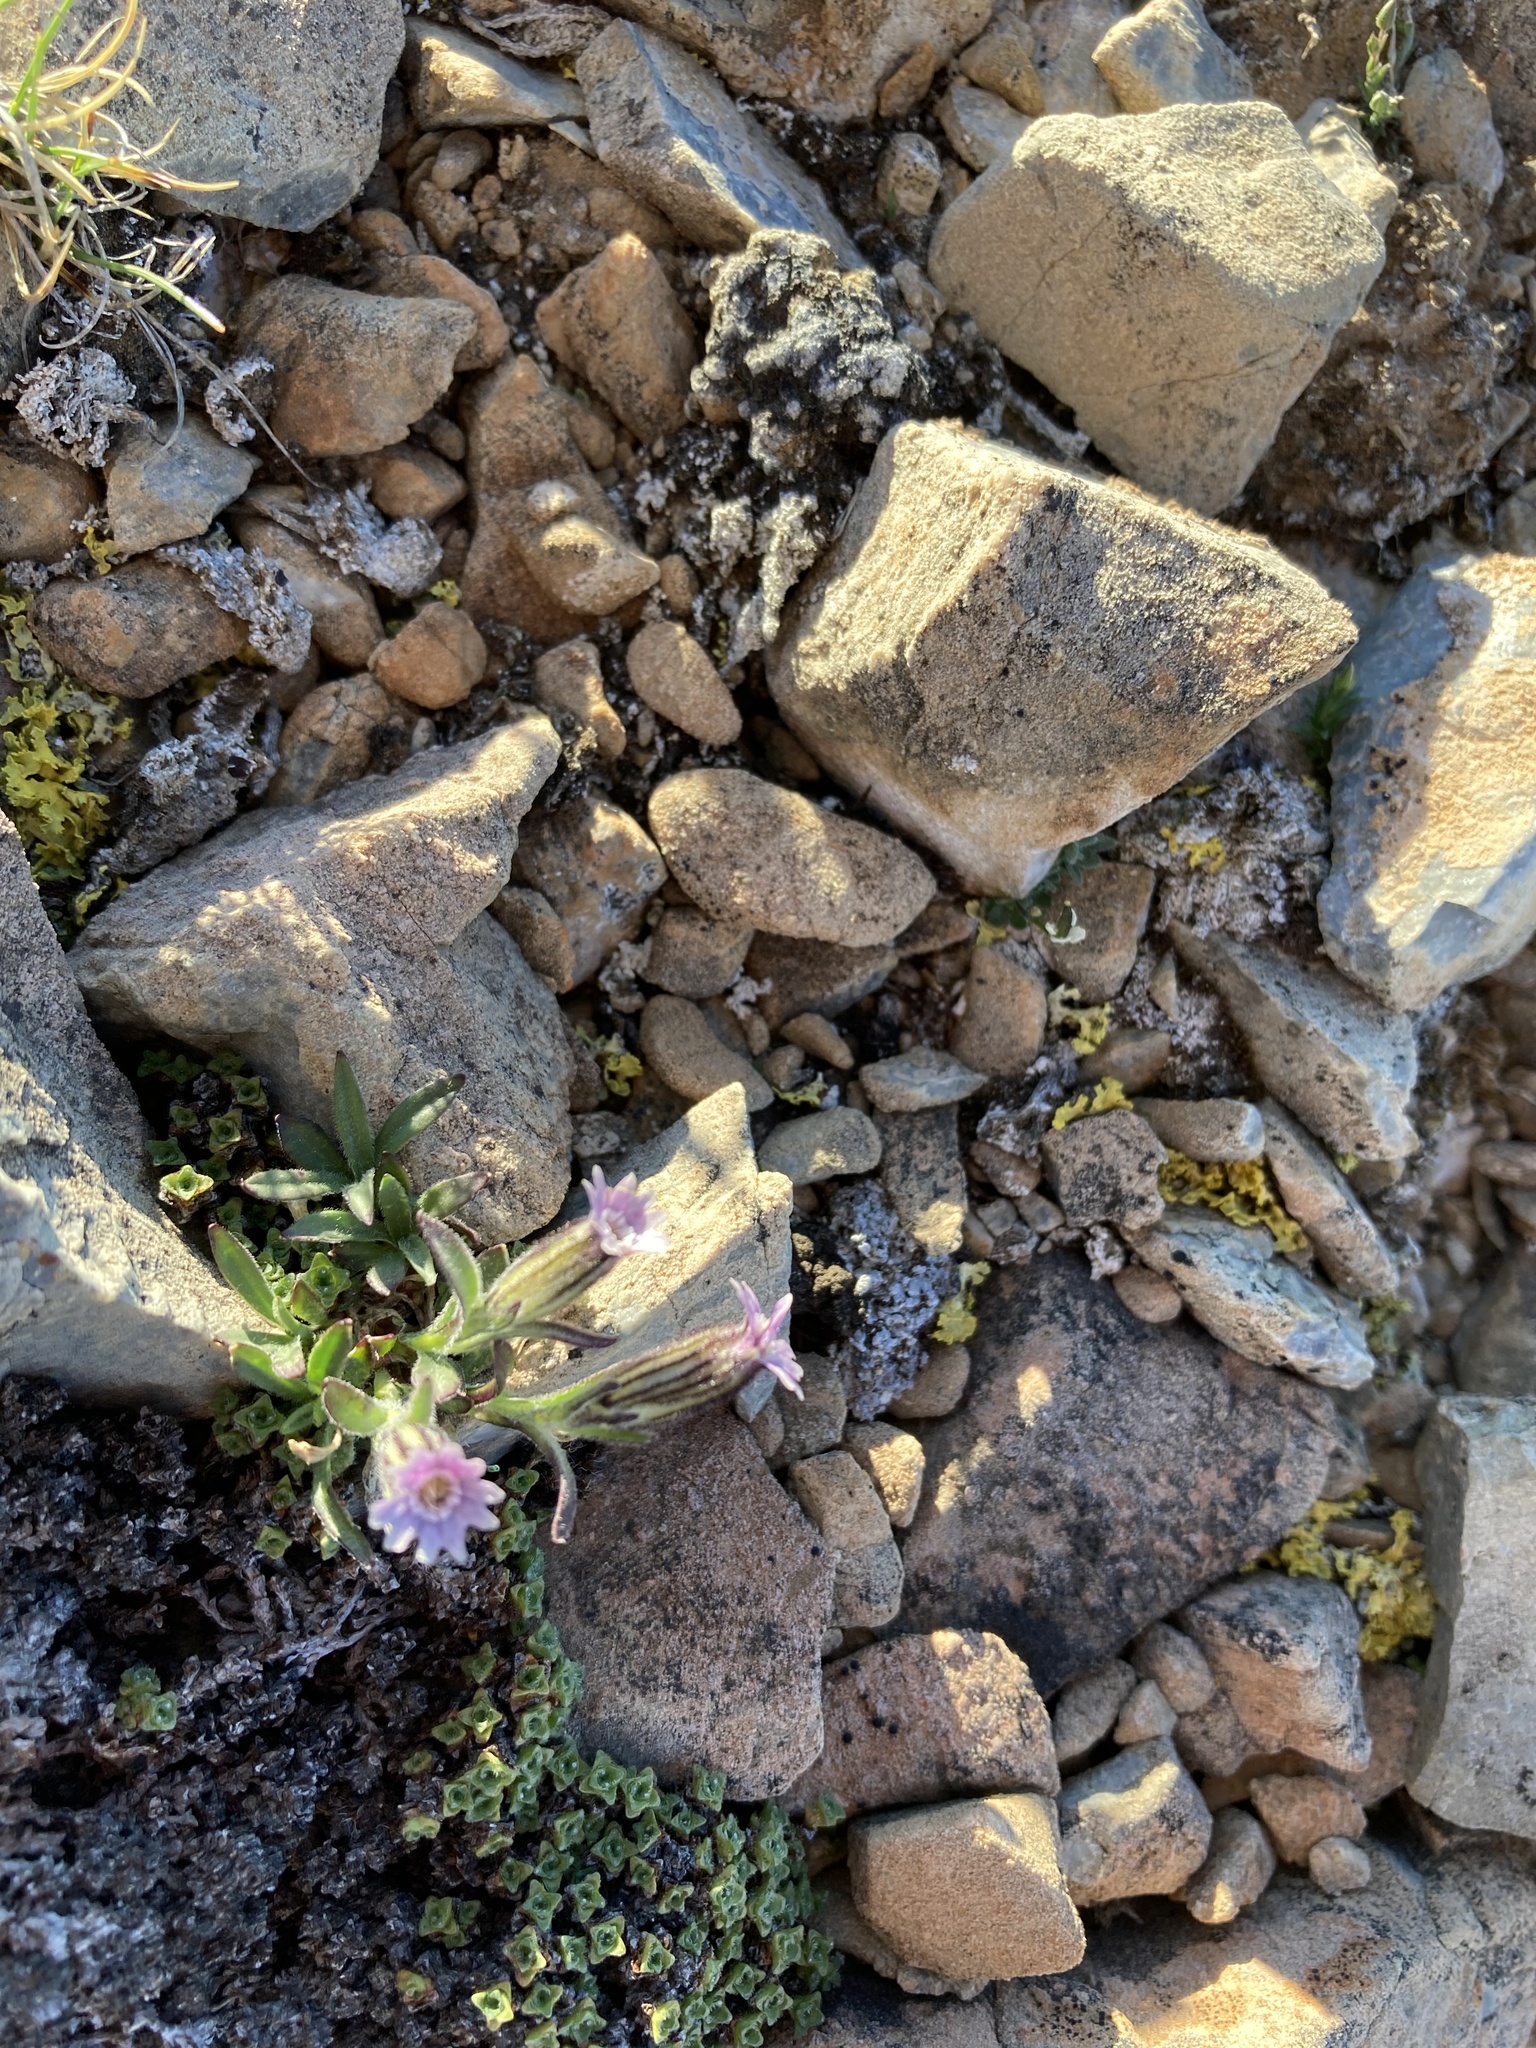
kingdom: Plantae
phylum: Tracheophyta
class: Magnoliopsida
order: Caryophyllales
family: Caryophyllaceae
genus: Silene
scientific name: Silene uralensis
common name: Nodding campion
